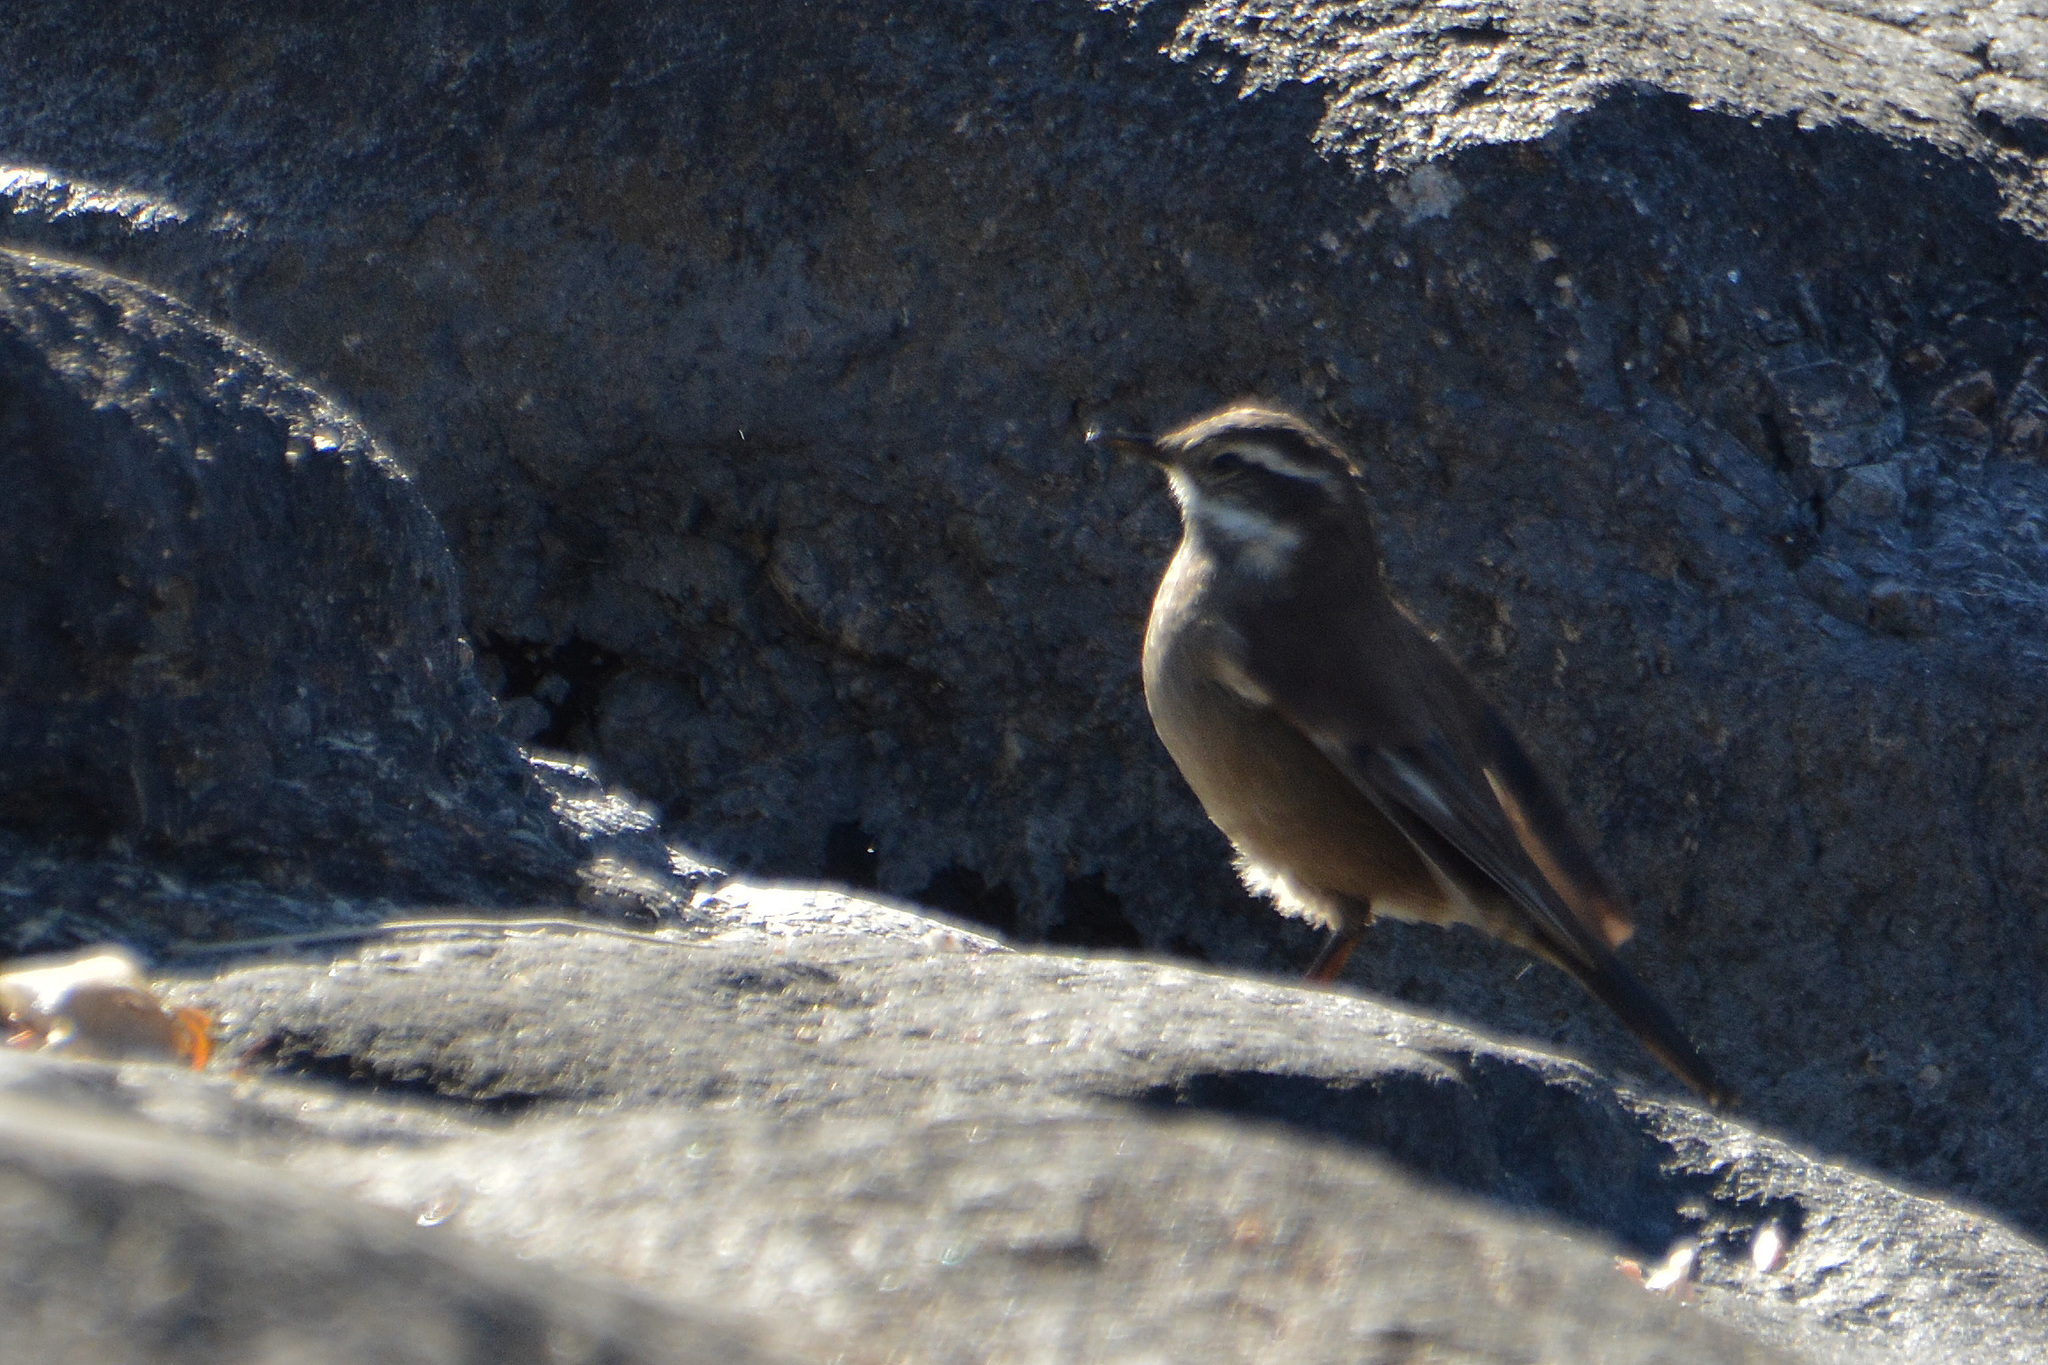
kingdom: Animalia
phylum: Chordata
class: Aves
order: Passeriformes
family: Furnariidae
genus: Cinclodes
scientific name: Cinclodes olrogi
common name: Olrog's cinclodes
